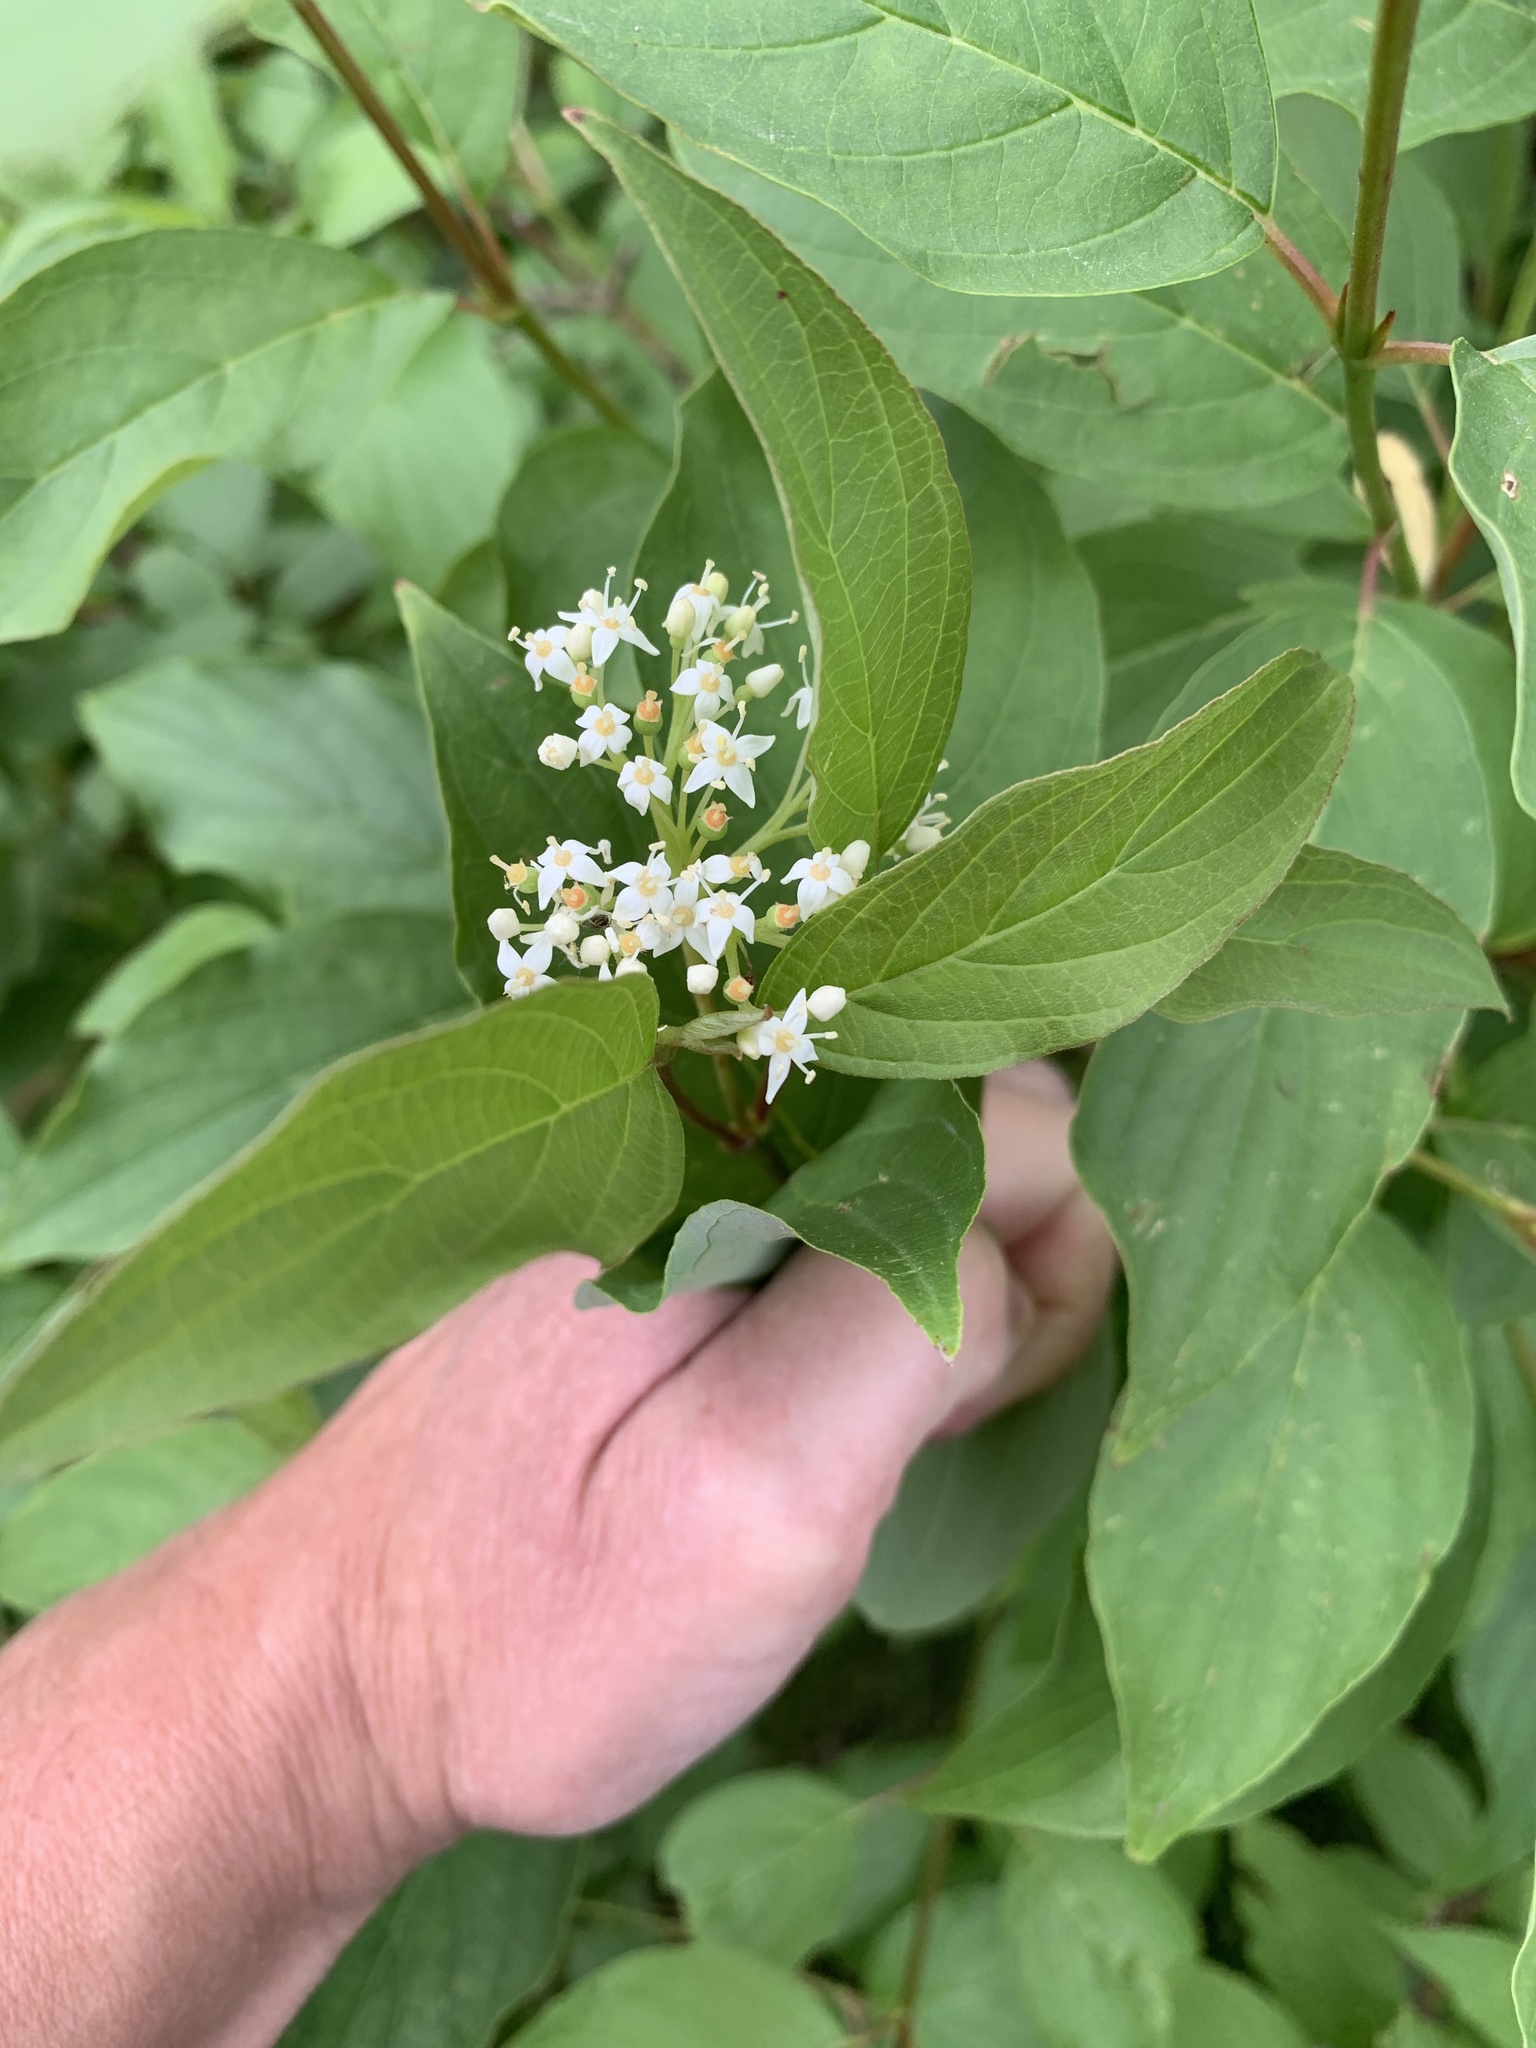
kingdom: Plantae
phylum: Tracheophyta
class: Magnoliopsida
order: Cornales
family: Cornaceae
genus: Cornus
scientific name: Cornus sericea
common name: Red-osier dogwood
